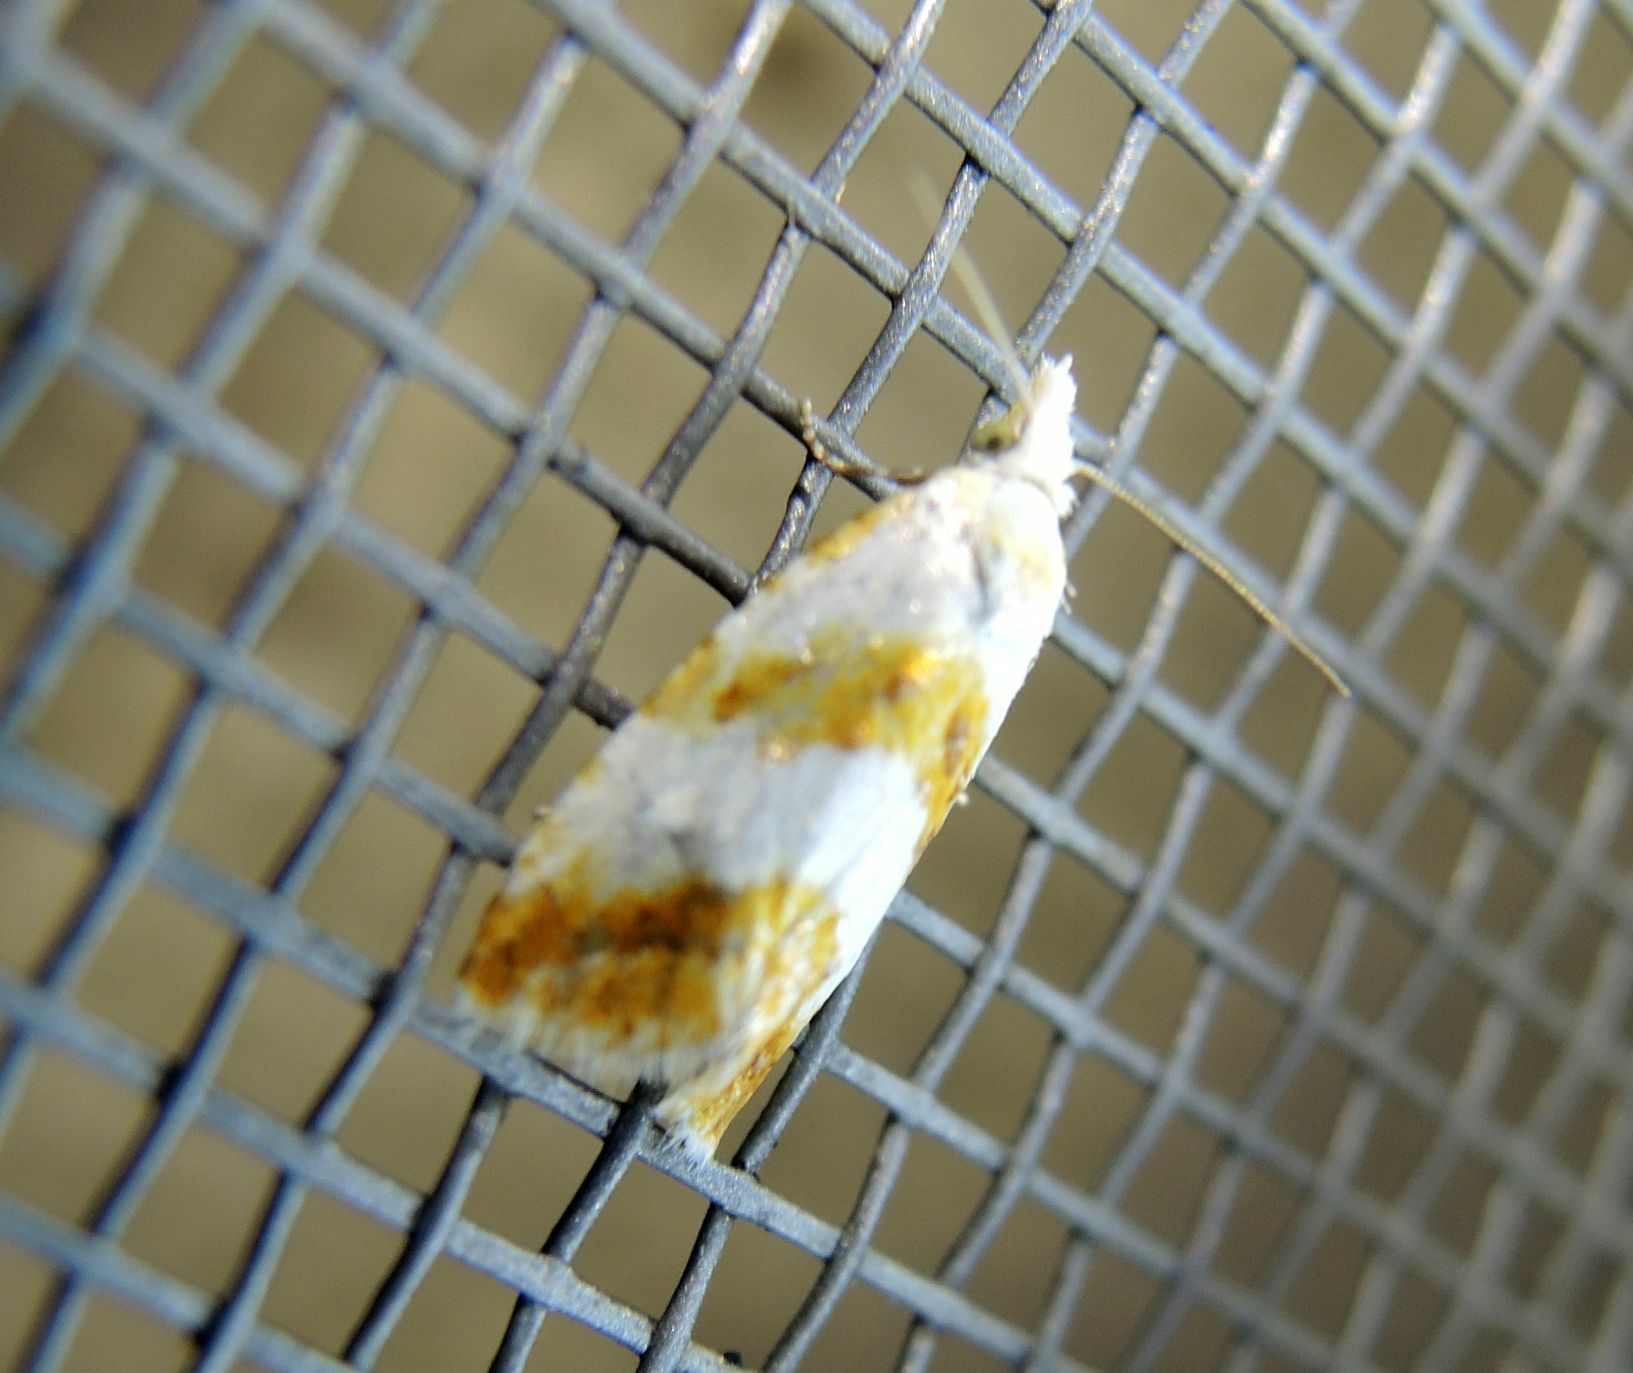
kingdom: Animalia
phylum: Arthropoda
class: Insecta
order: Lepidoptera
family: Tortricidae
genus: Phtheochroa
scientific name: Phtheochroa procerana
